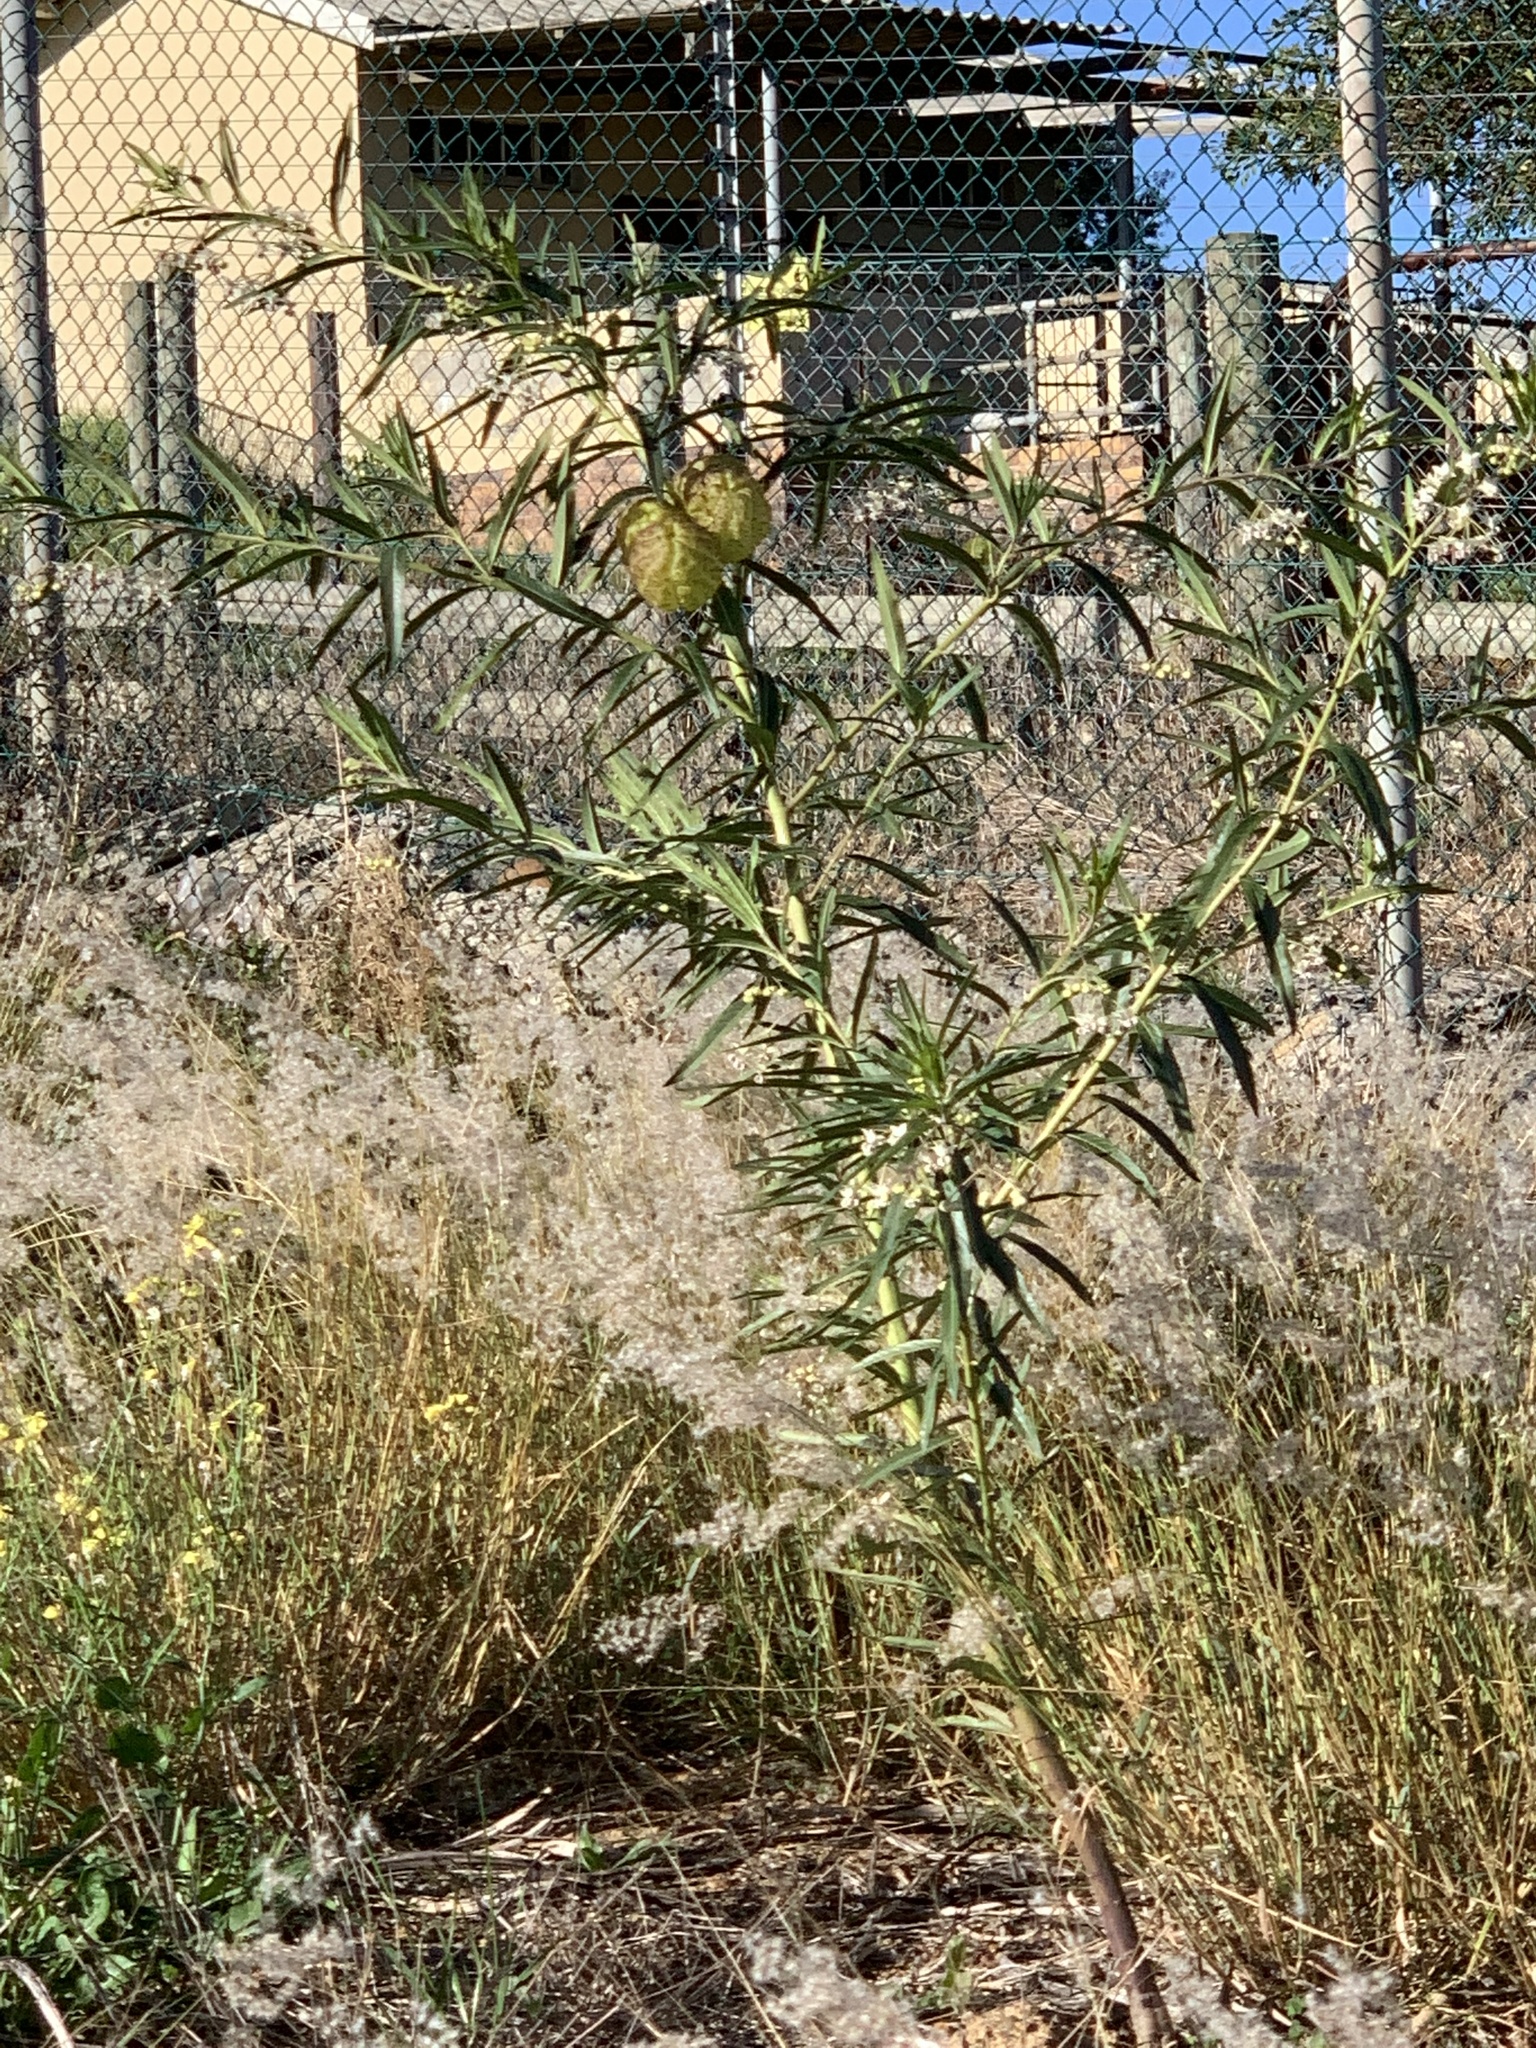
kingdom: Plantae
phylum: Tracheophyta
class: Magnoliopsida
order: Gentianales
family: Apocynaceae
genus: Gomphocarpus
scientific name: Gomphocarpus physocarpus
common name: Balloon cotton bush
